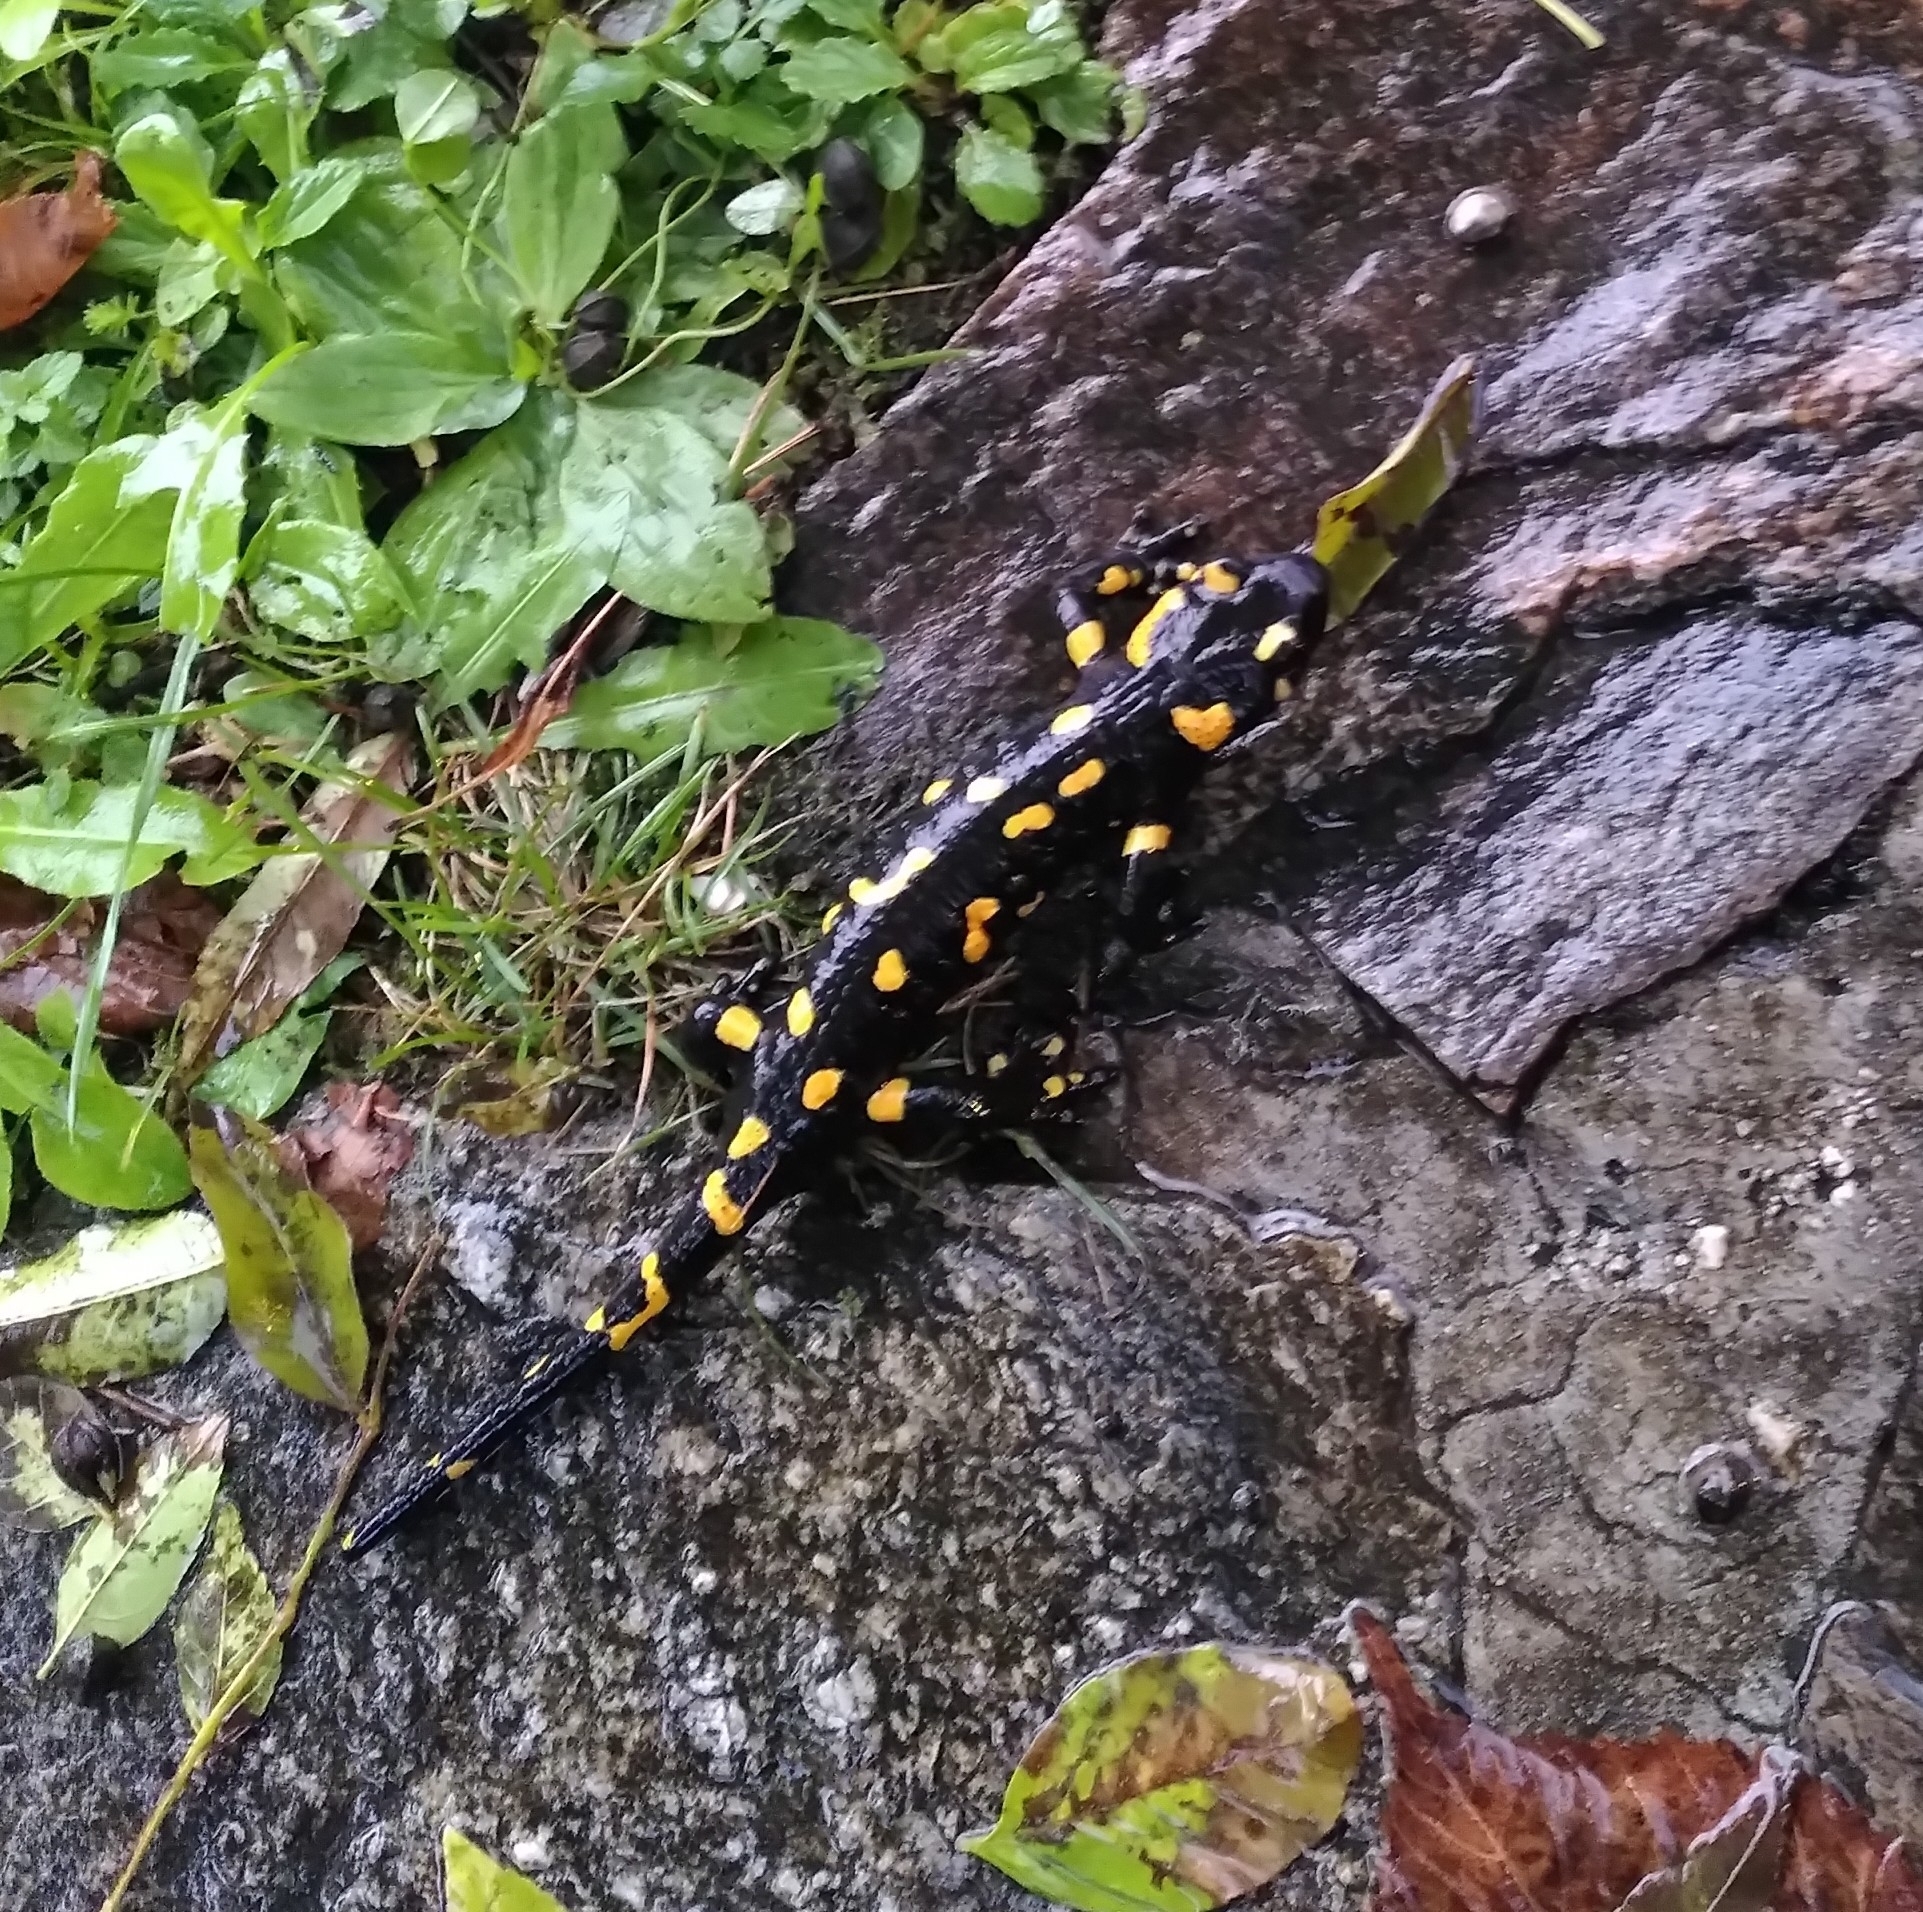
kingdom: Animalia
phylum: Chordata
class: Amphibia
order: Caudata
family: Salamandridae
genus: Salamandra
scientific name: Salamandra salamandra
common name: Fire salamander
